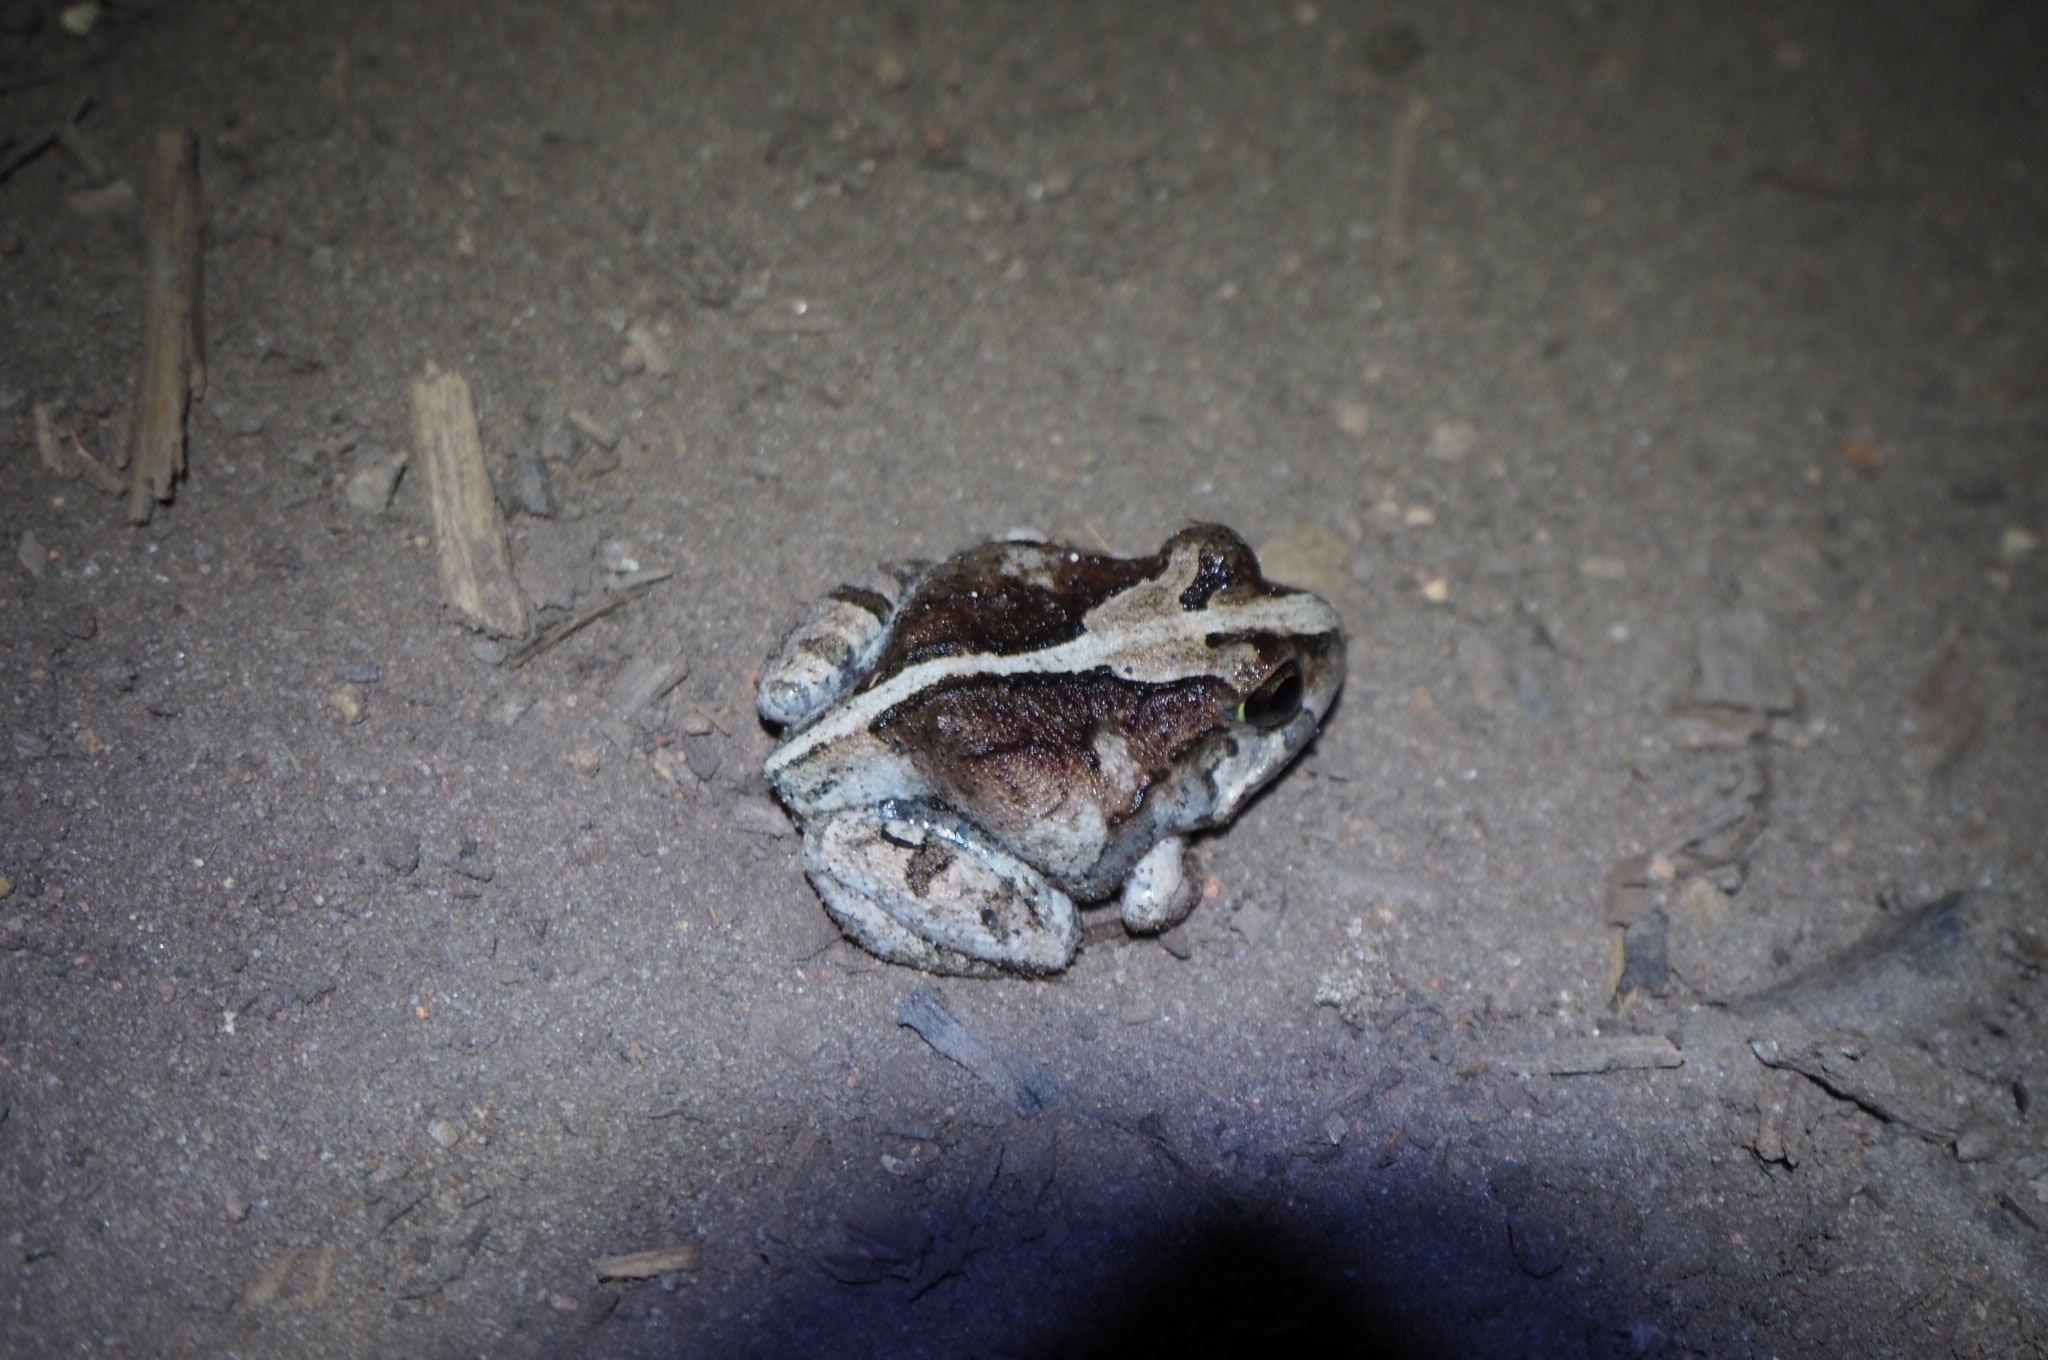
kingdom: Animalia
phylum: Chordata
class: Amphibia
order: Anura
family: Limnodynastidae
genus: Platyplectrum
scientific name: Platyplectrum ornatum
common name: Ornate burrowing frog
